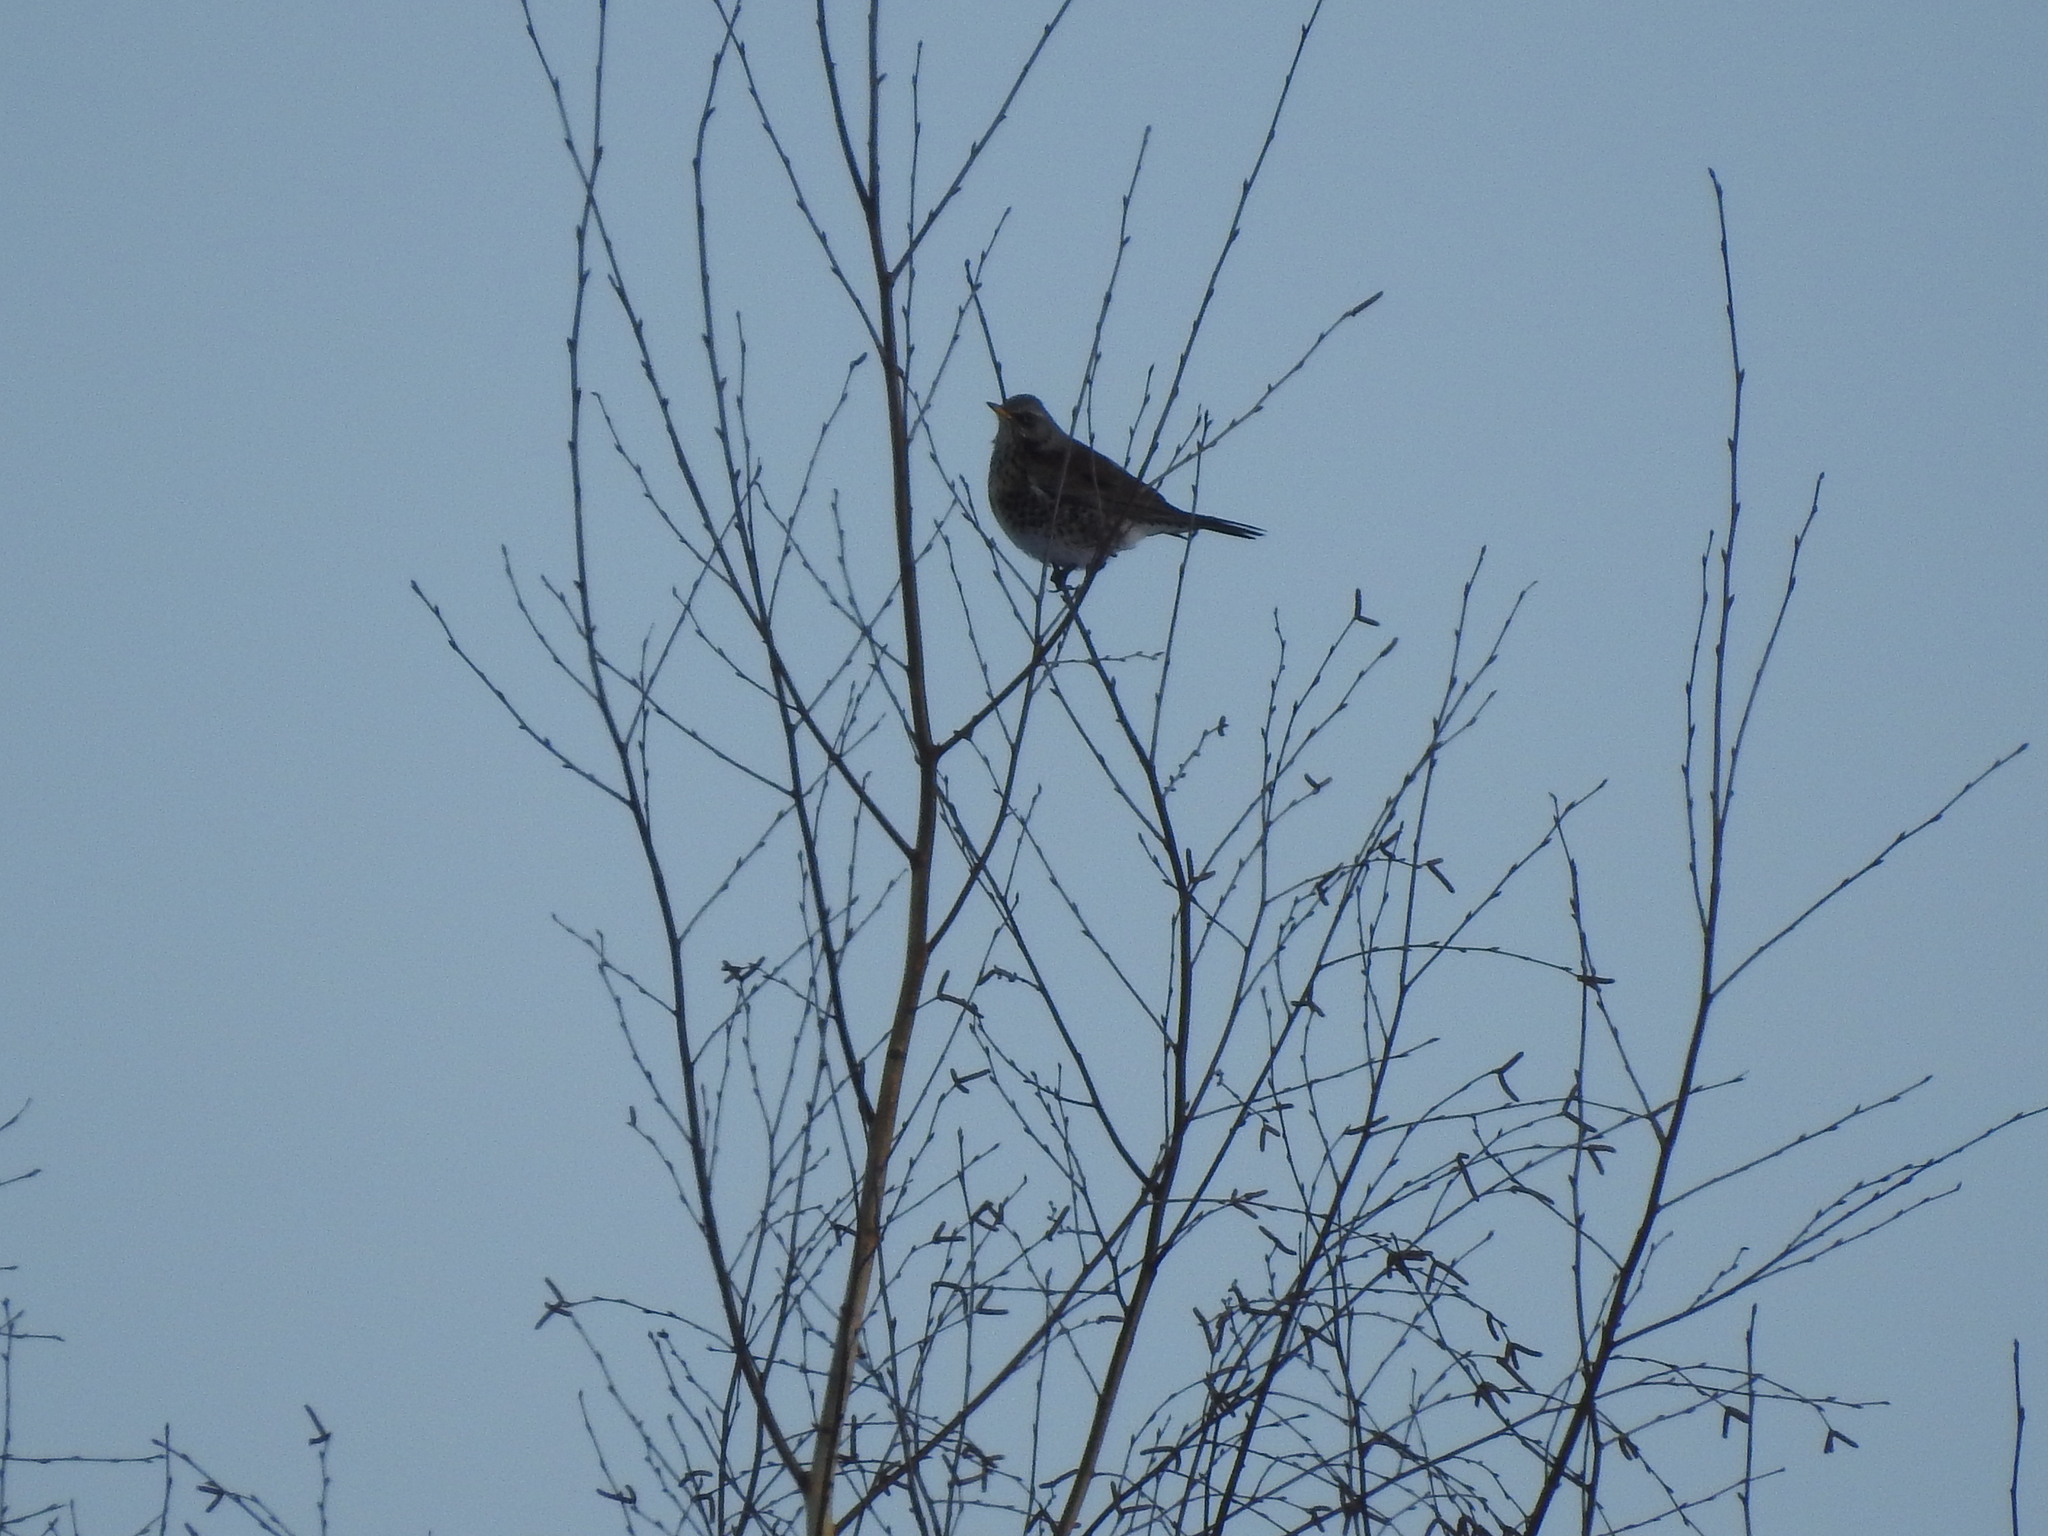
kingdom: Animalia
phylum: Chordata
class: Aves
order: Passeriformes
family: Turdidae
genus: Turdus
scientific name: Turdus pilaris
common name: Fieldfare
